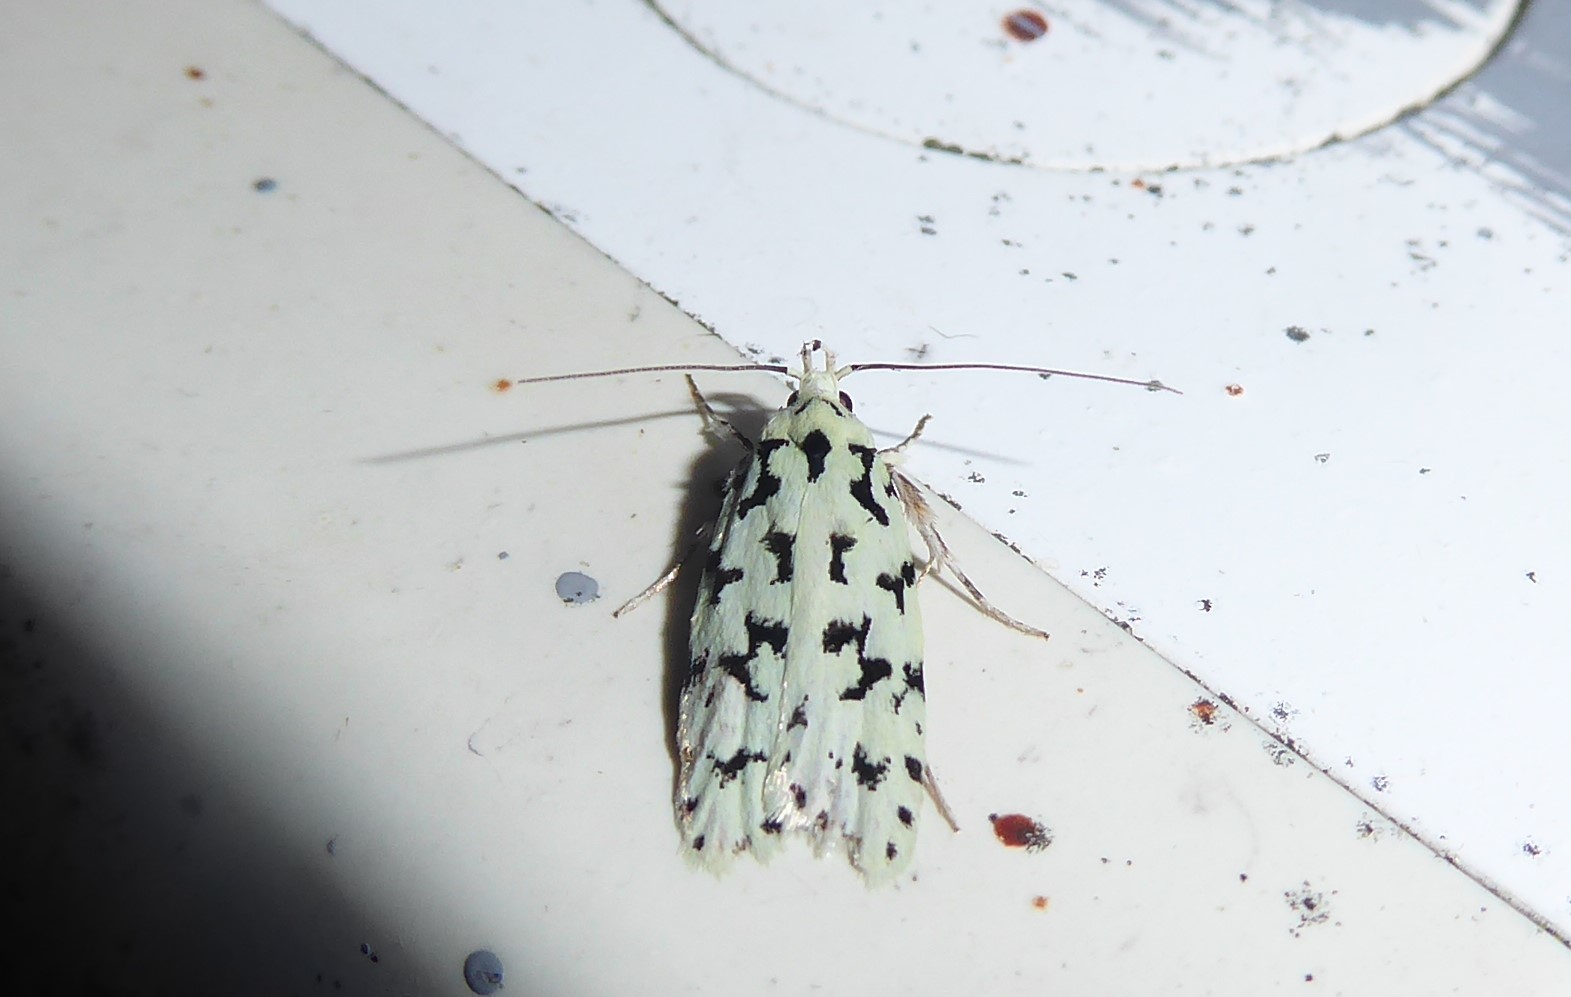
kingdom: Animalia
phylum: Arthropoda
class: Insecta
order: Lepidoptera
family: Oecophoridae
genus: Izatha
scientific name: Izatha huttoni
